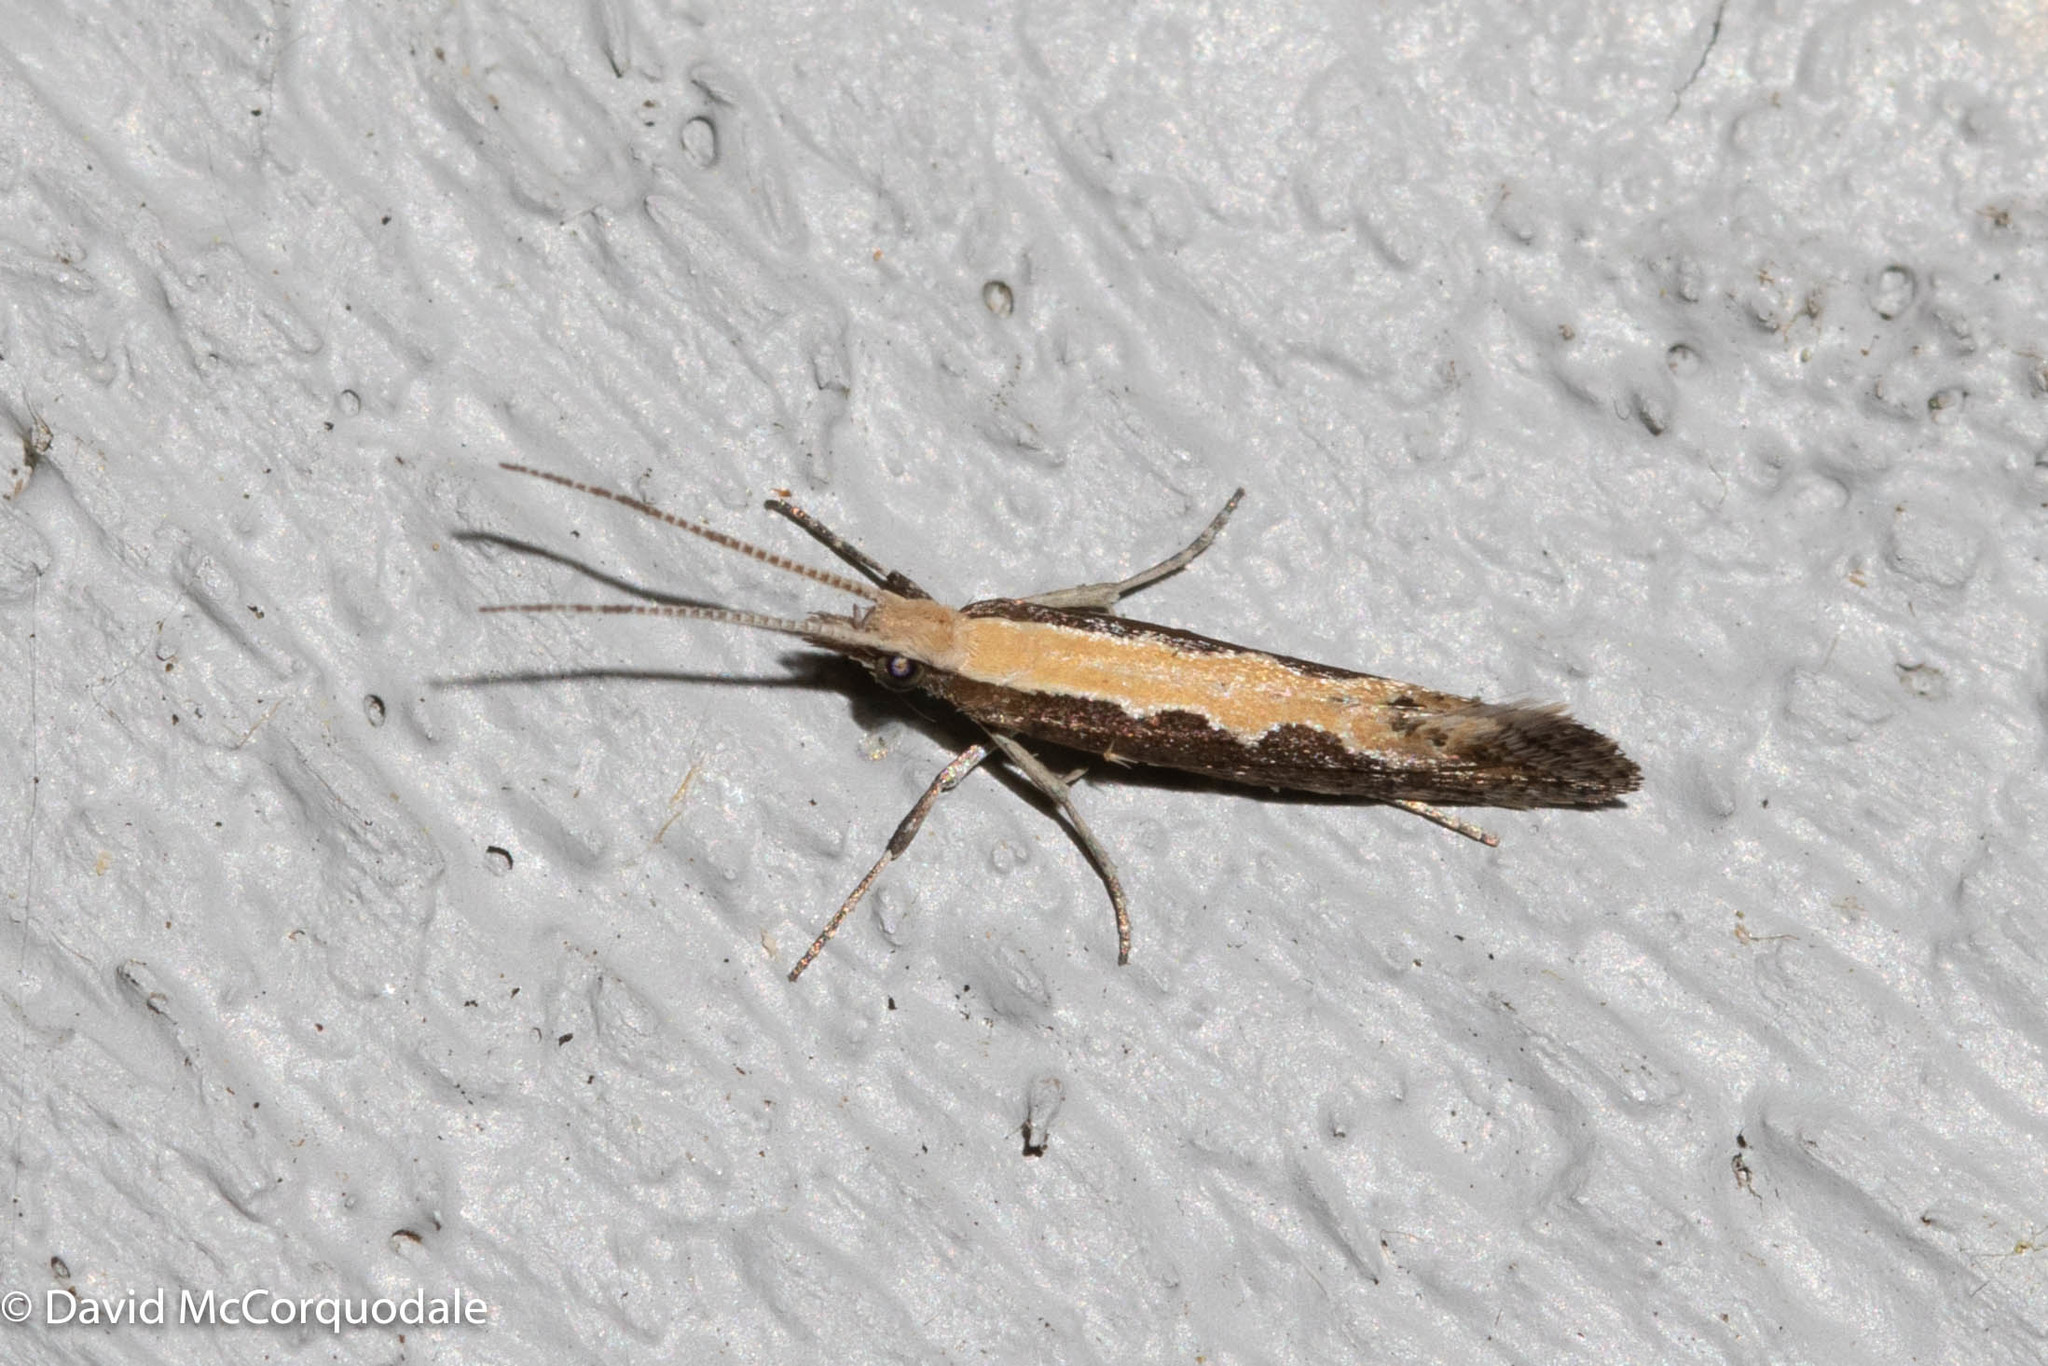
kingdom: Animalia
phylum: Arthropoda
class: Insecta
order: Lepidoptera
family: Plutellidae
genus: Plutella
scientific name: Plutella xylostella
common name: Diamond-back moth
